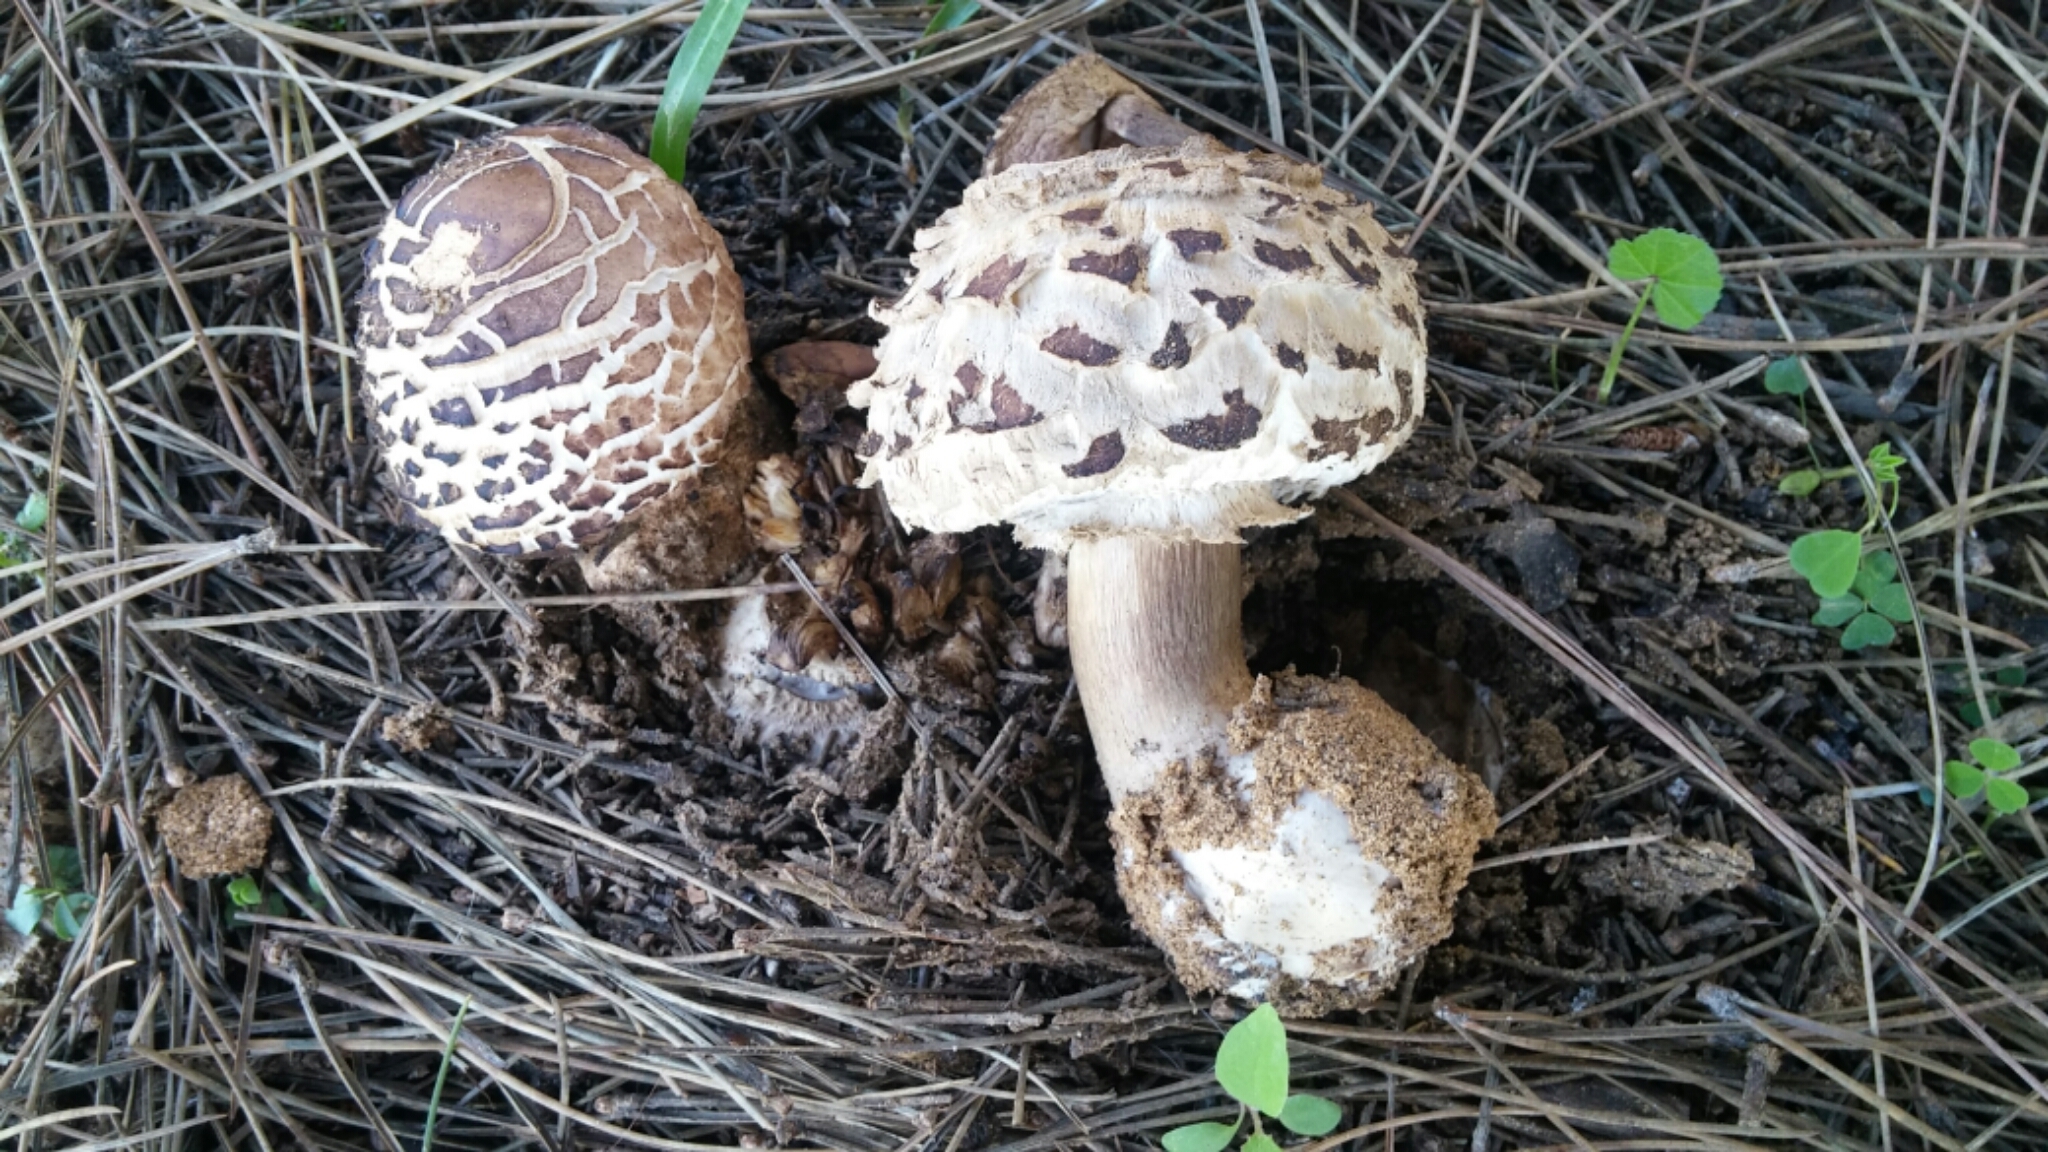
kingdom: Fungi
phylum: Basidiomycota
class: Agaricomycetes
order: Agaricales
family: Agaricaceae
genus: Chlorophyllum
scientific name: Chlorophyllum brunneum
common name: Brown parasol
